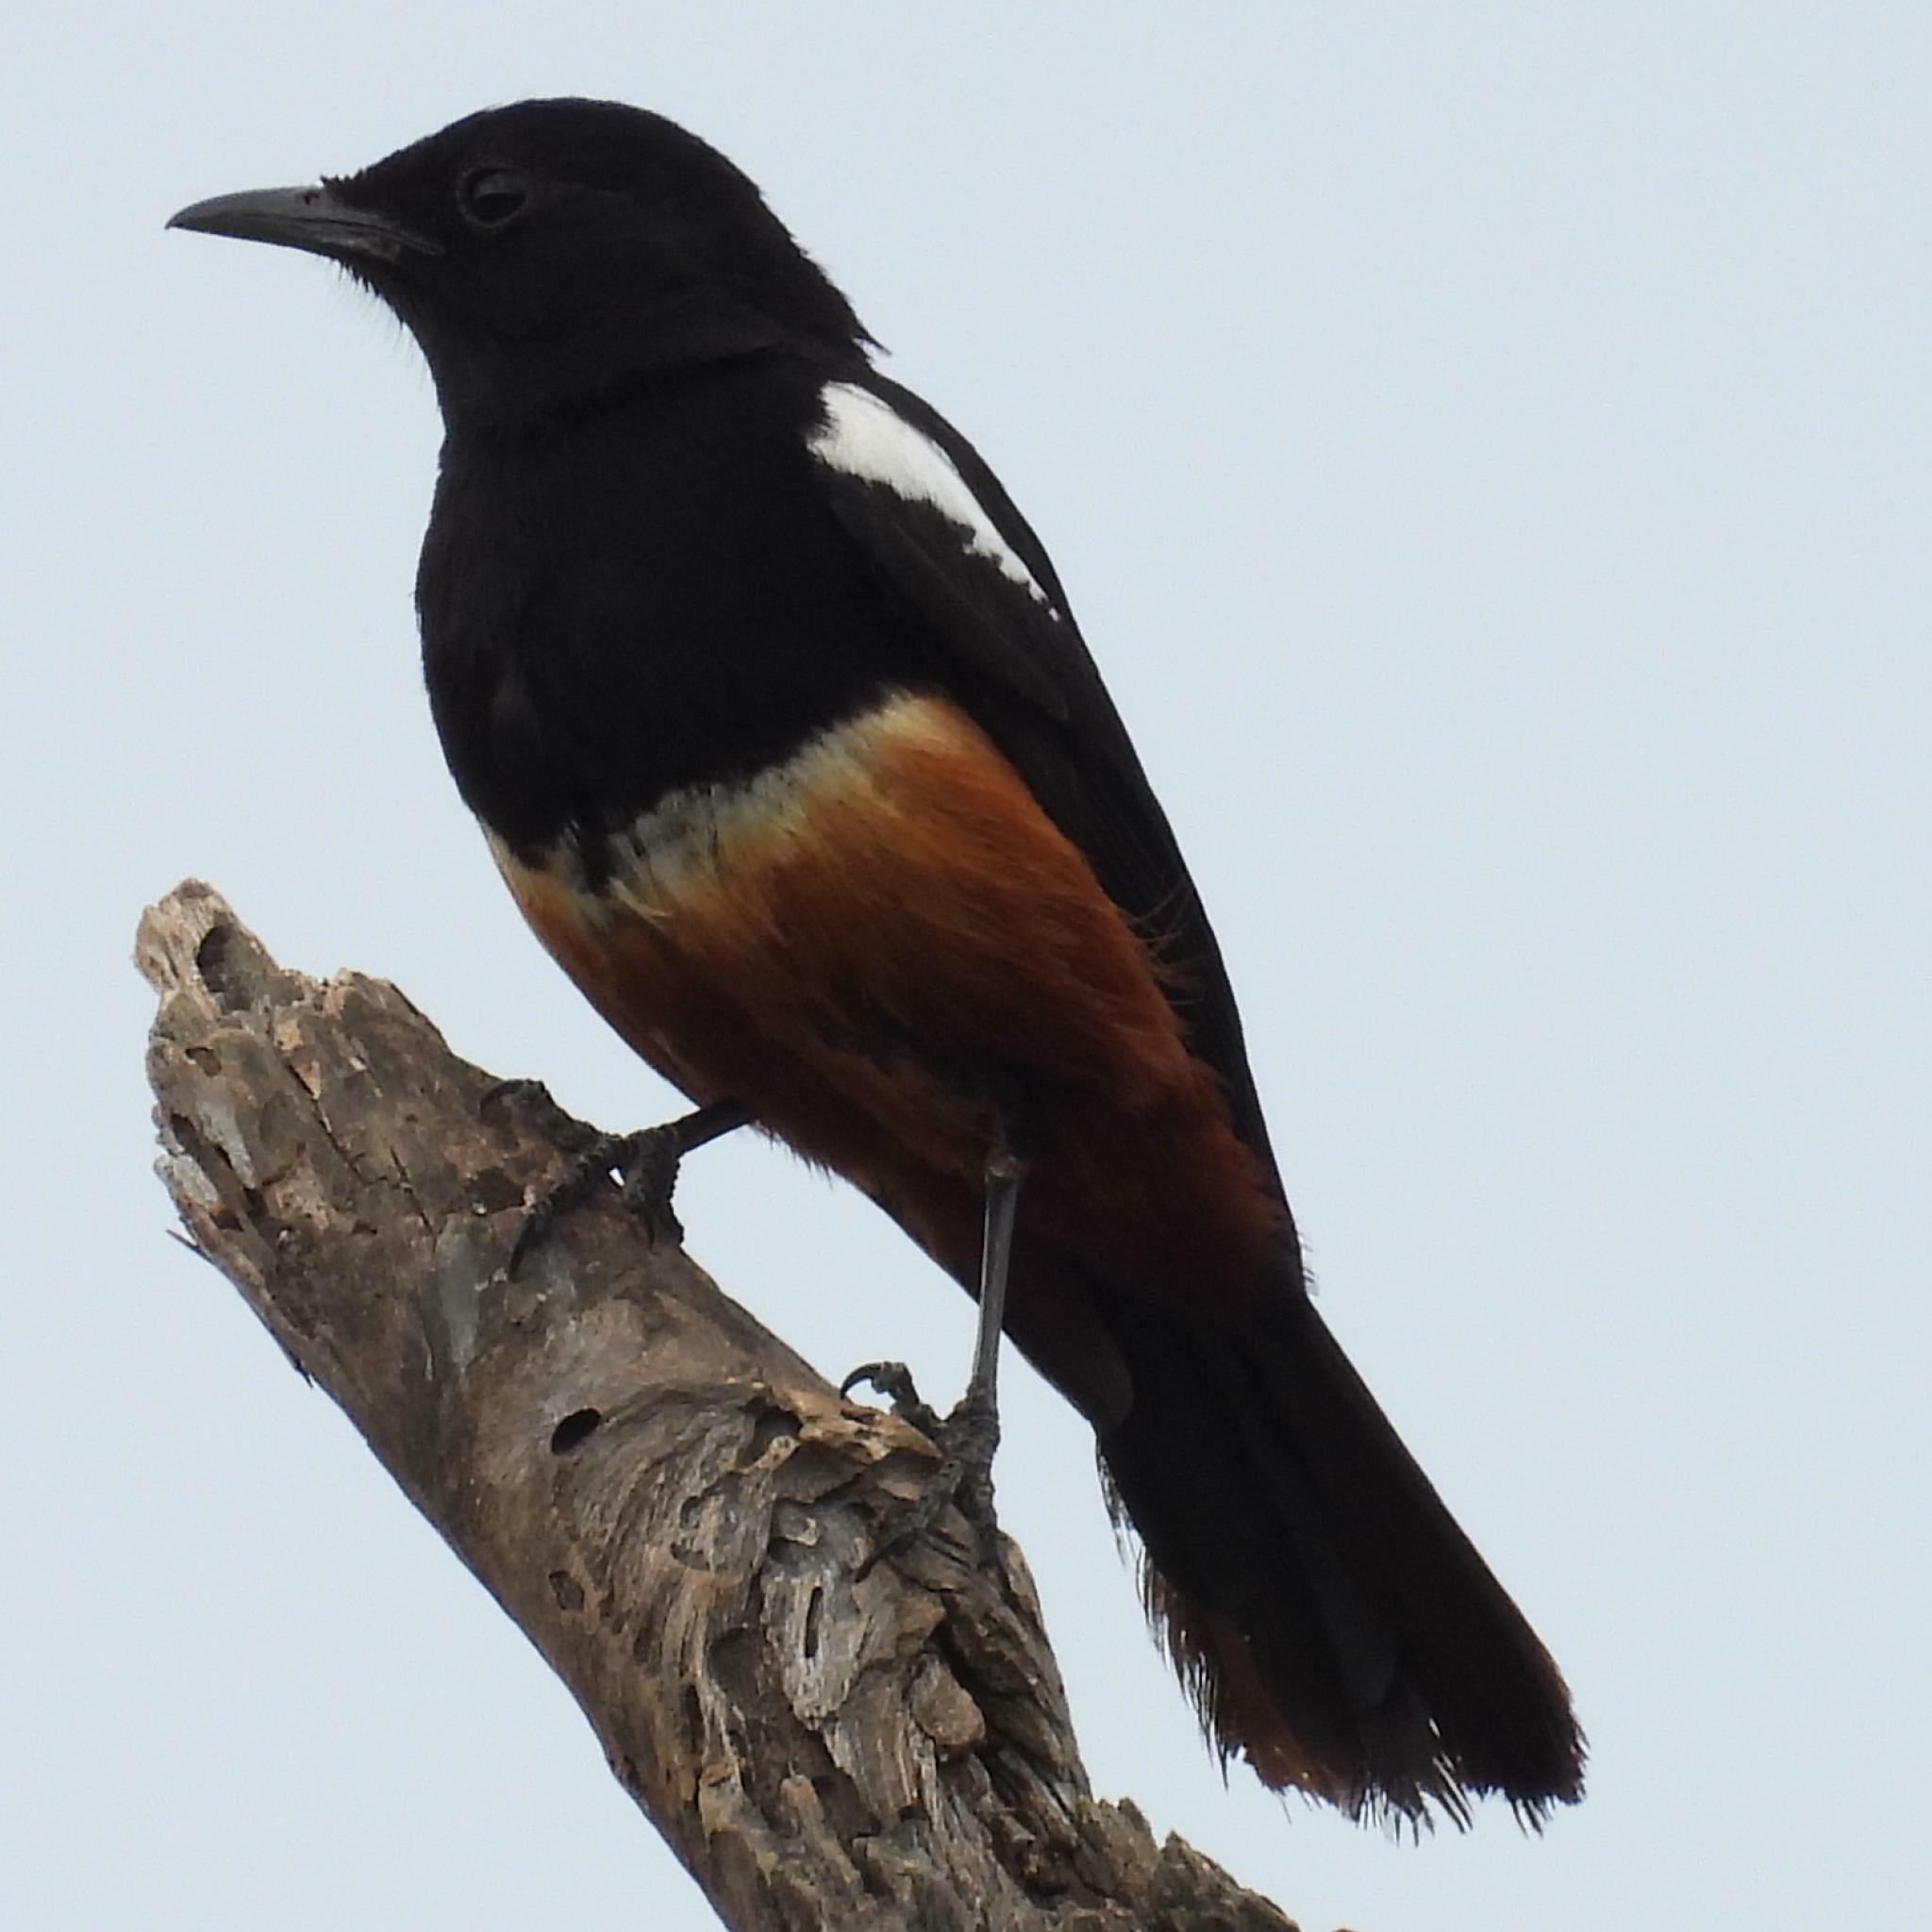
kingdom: Animalia
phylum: Chordata
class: Aves
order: Passeriformes
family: Muscicapidae
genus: Thamnolaea
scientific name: Thamnolaea cinnamomeiventris
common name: Mocking cliff chat
